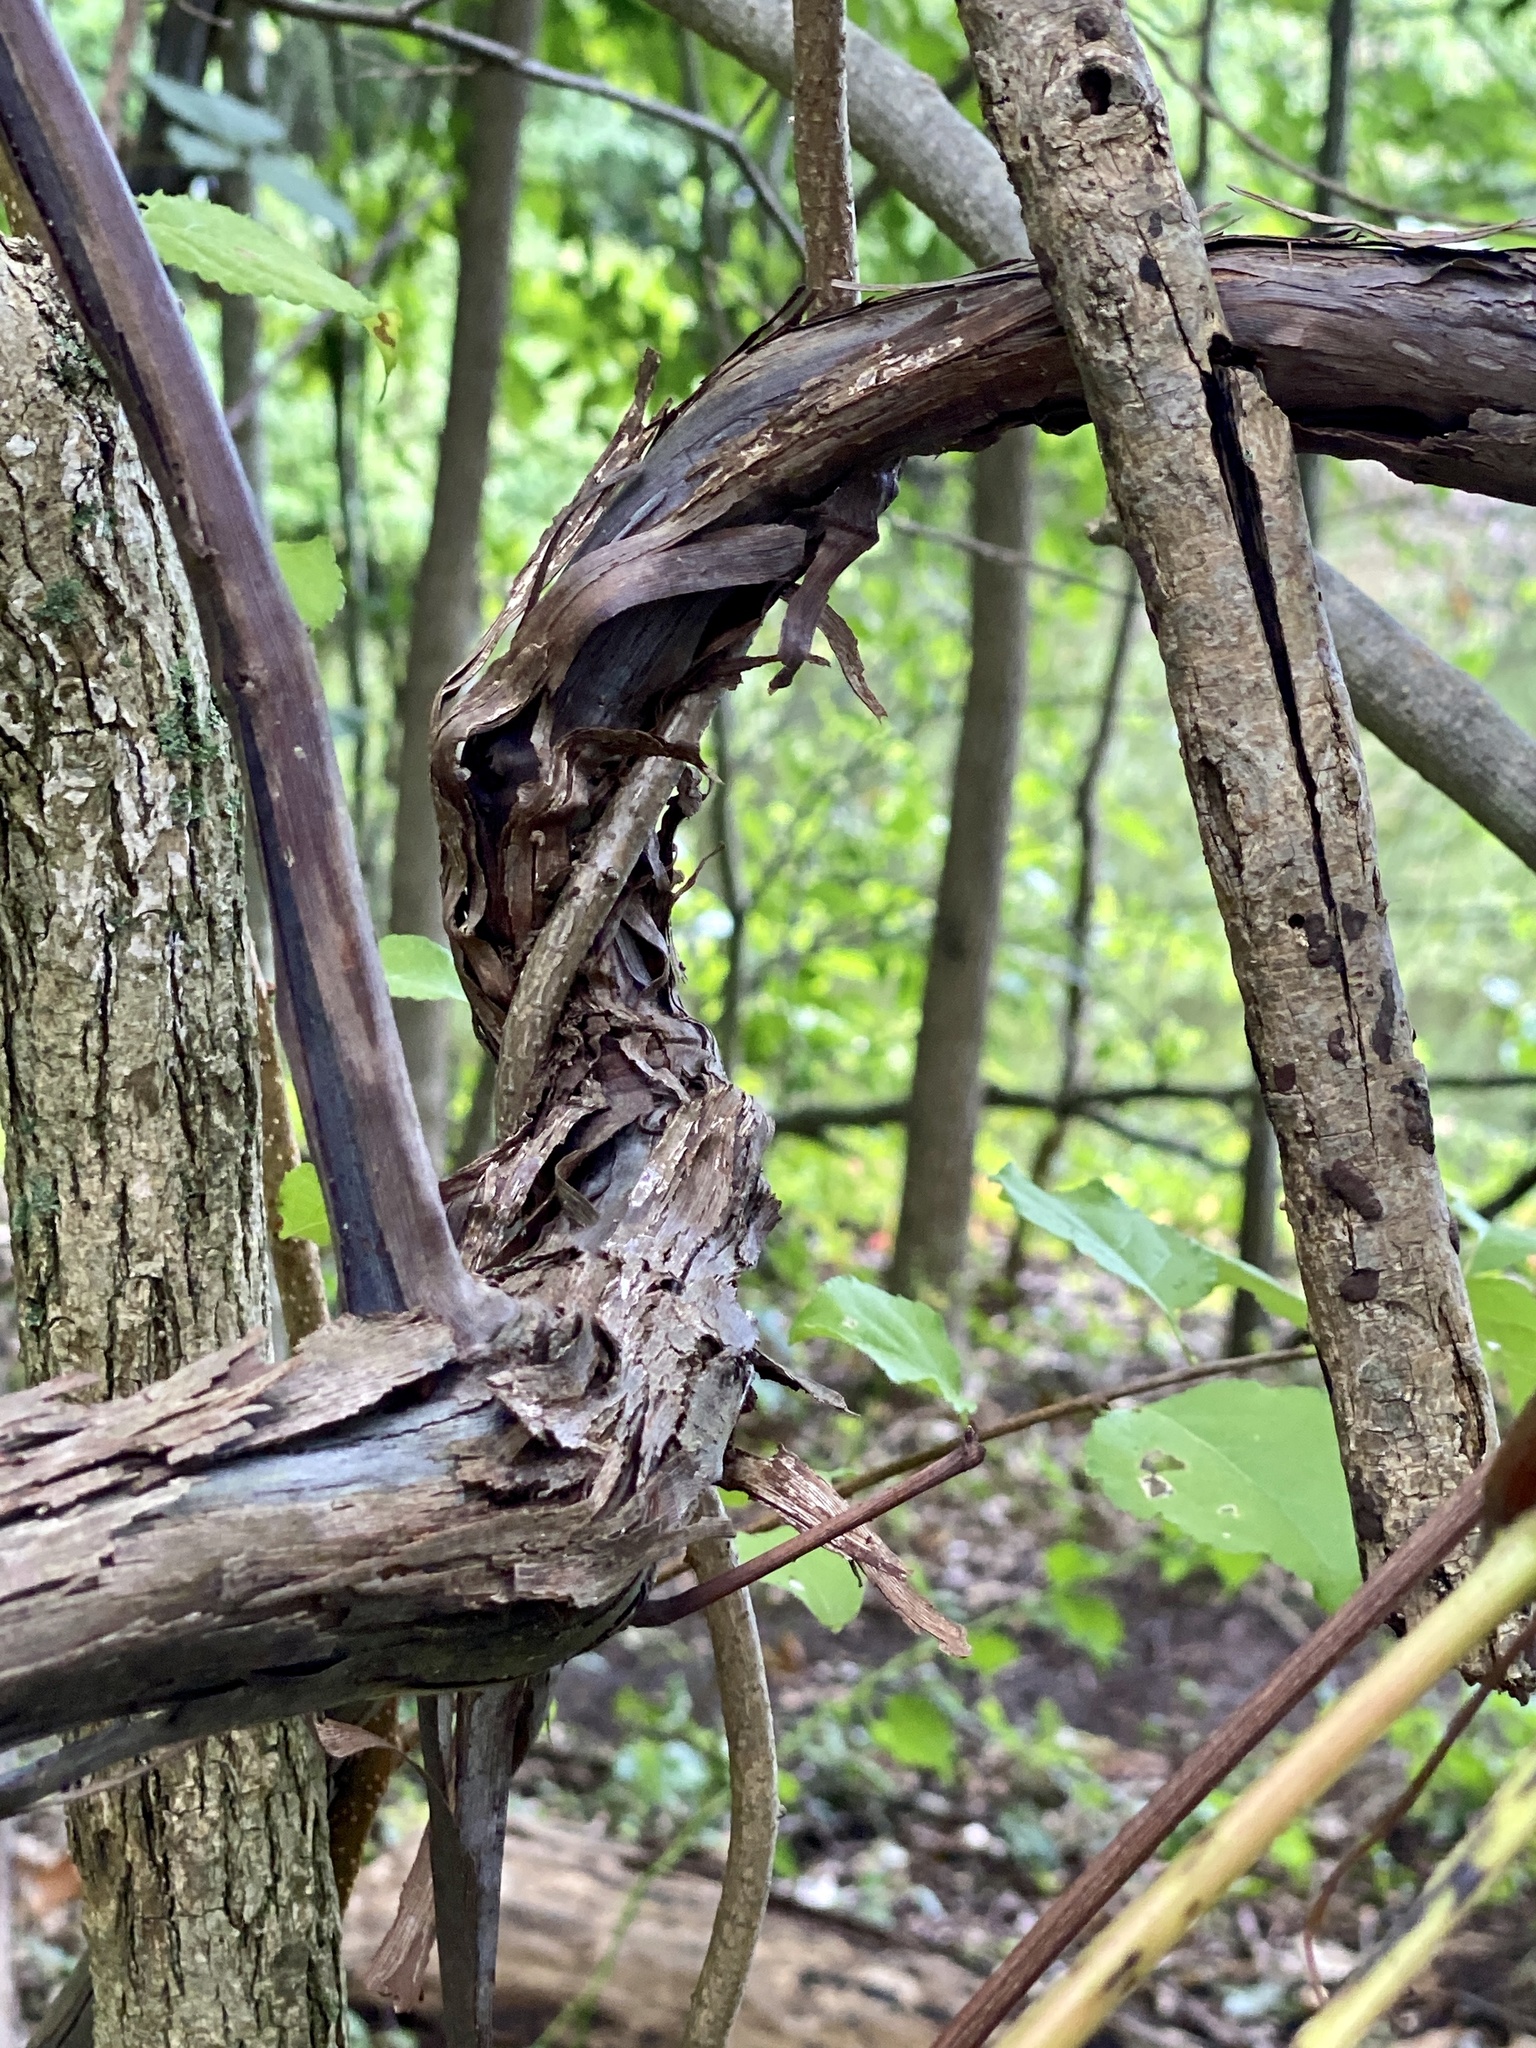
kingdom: Plantae
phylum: Tracheophyta
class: Magnoliopsida
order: Vitales
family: Vitaceae
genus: Vitis
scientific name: Vitis
